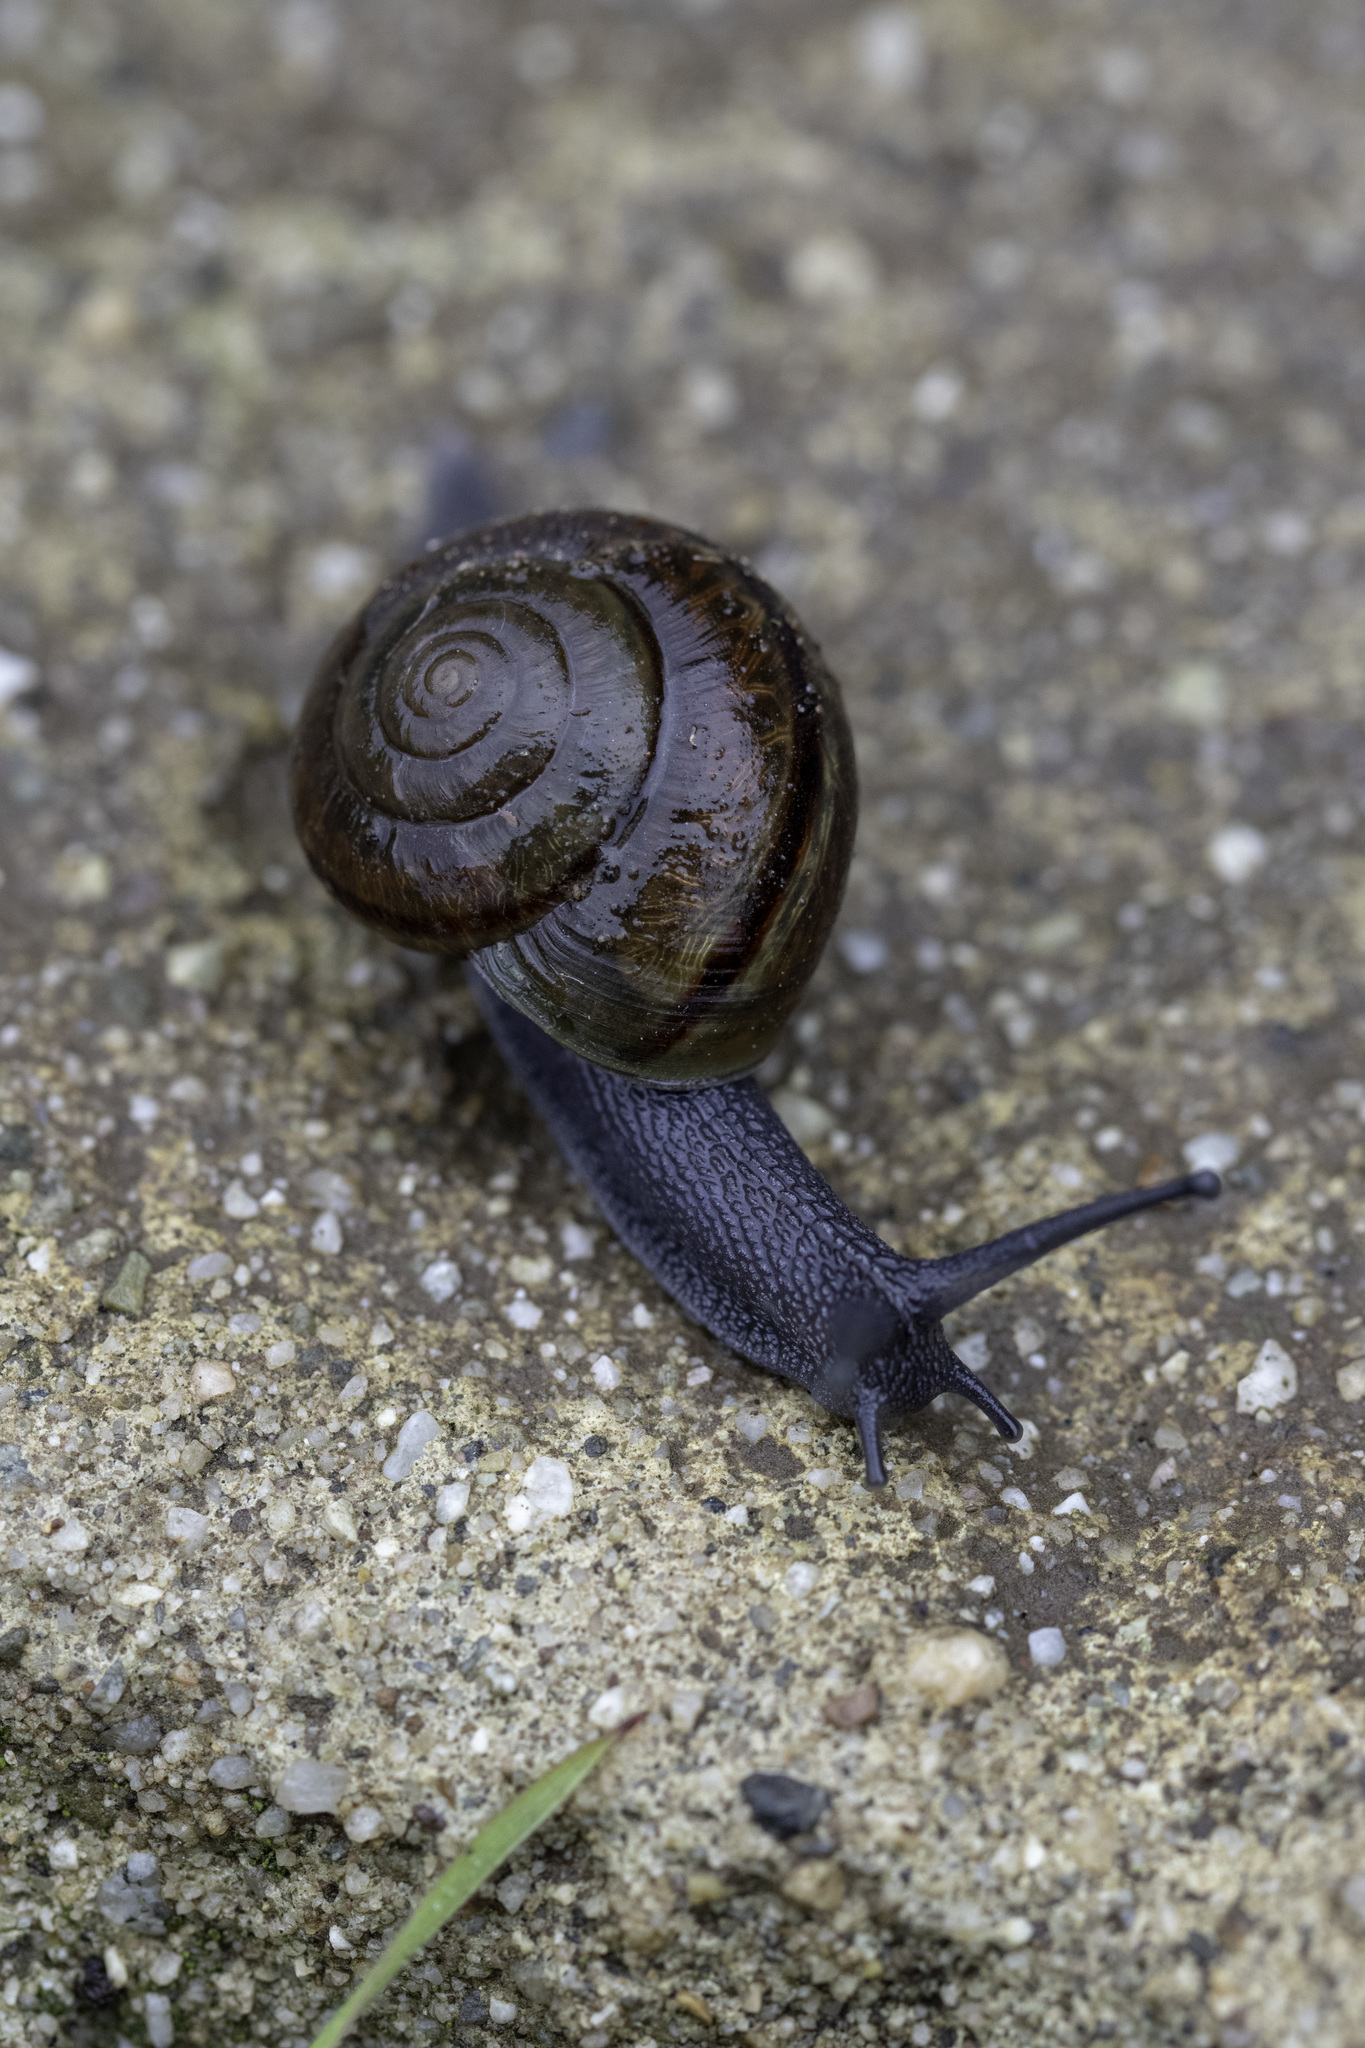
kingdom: Animalia
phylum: Mollusca
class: Gastropoda
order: Stylommatophora
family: Xanthonychidae
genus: Helminthoglypta
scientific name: Helminthoglypta traskii
